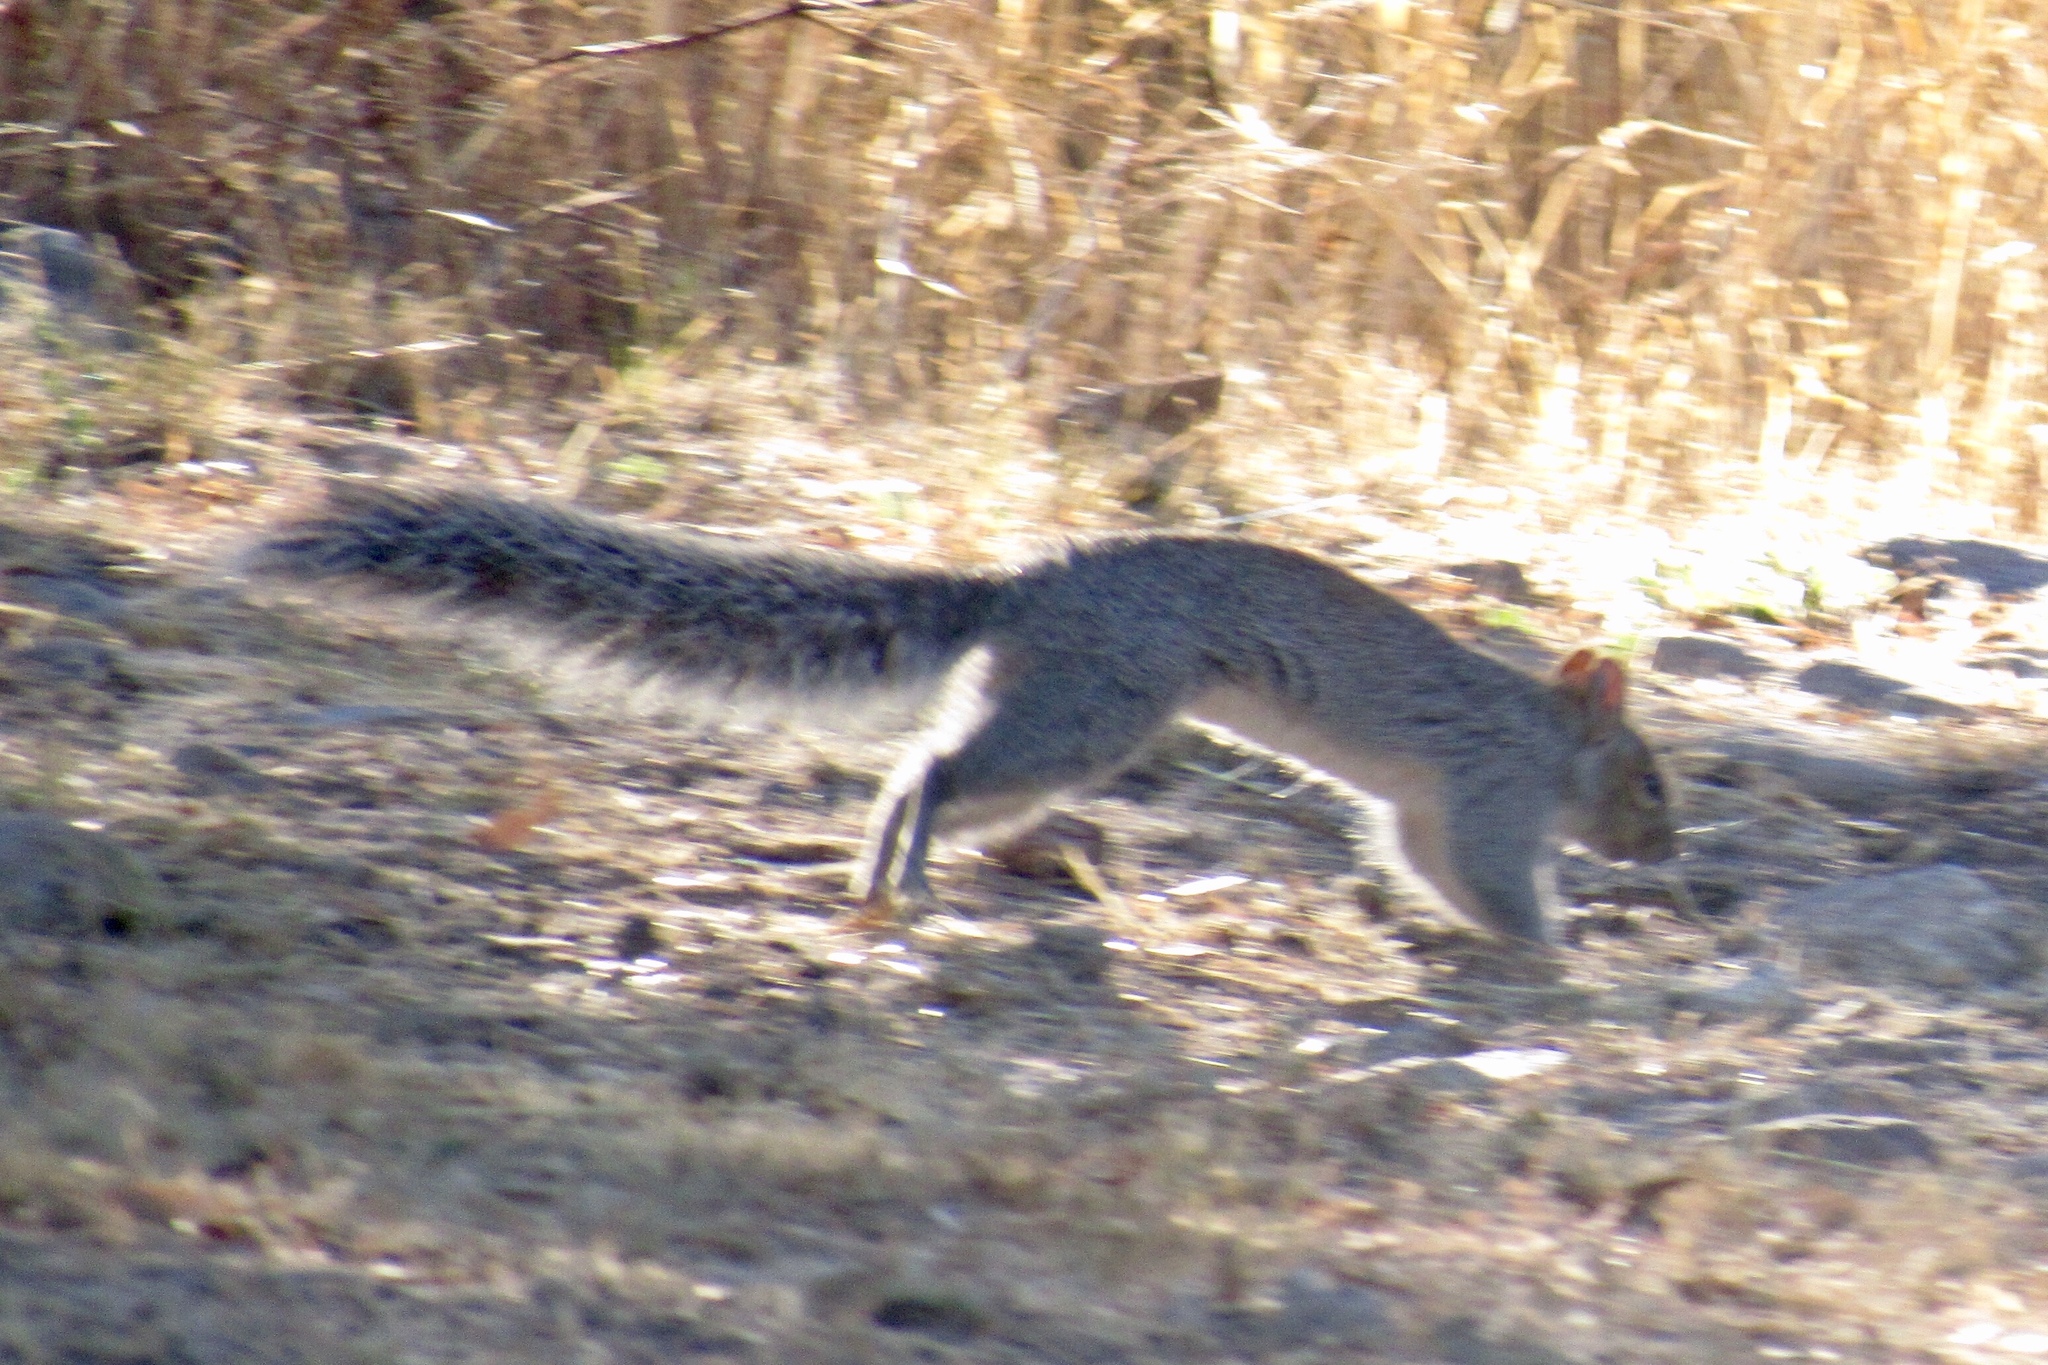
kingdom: Animalia
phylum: Chordata
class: Mammalia
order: Rodentia
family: Sciuridae
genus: Sciurus
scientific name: Sciurus arizonensis
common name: Arizona gray squirrel
